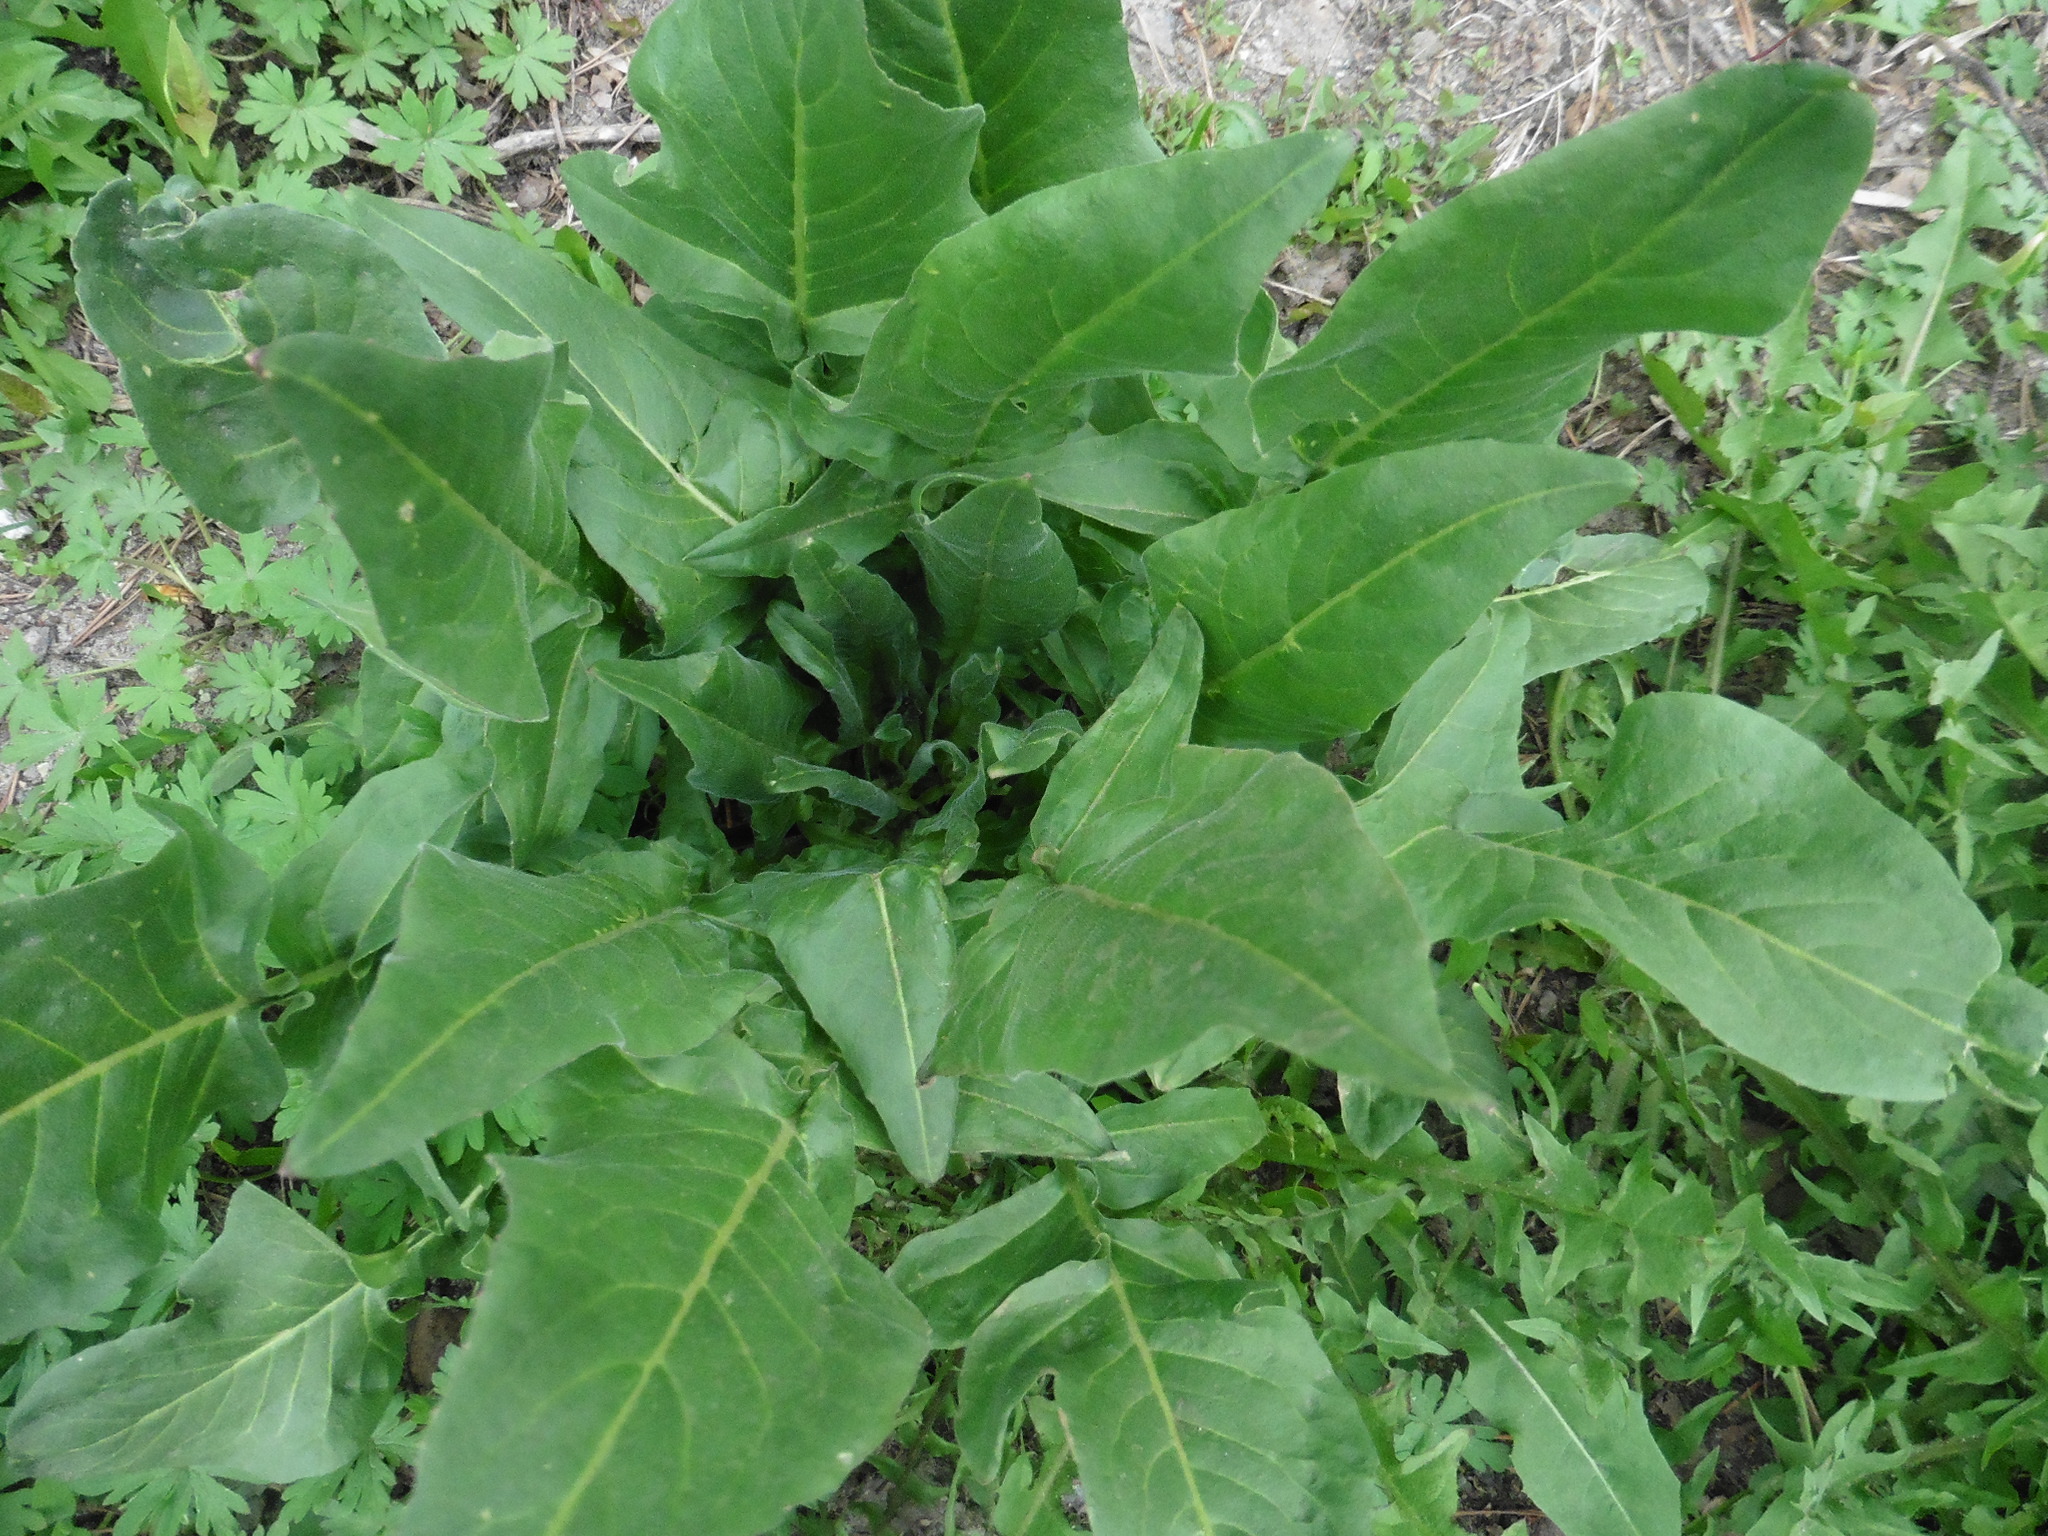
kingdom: Plantae
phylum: Tracheophyta
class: Magnoliopsida
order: Brassicales
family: Brassicaceae
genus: Bunias
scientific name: Bunias orientalis
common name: Warty-cabbage
